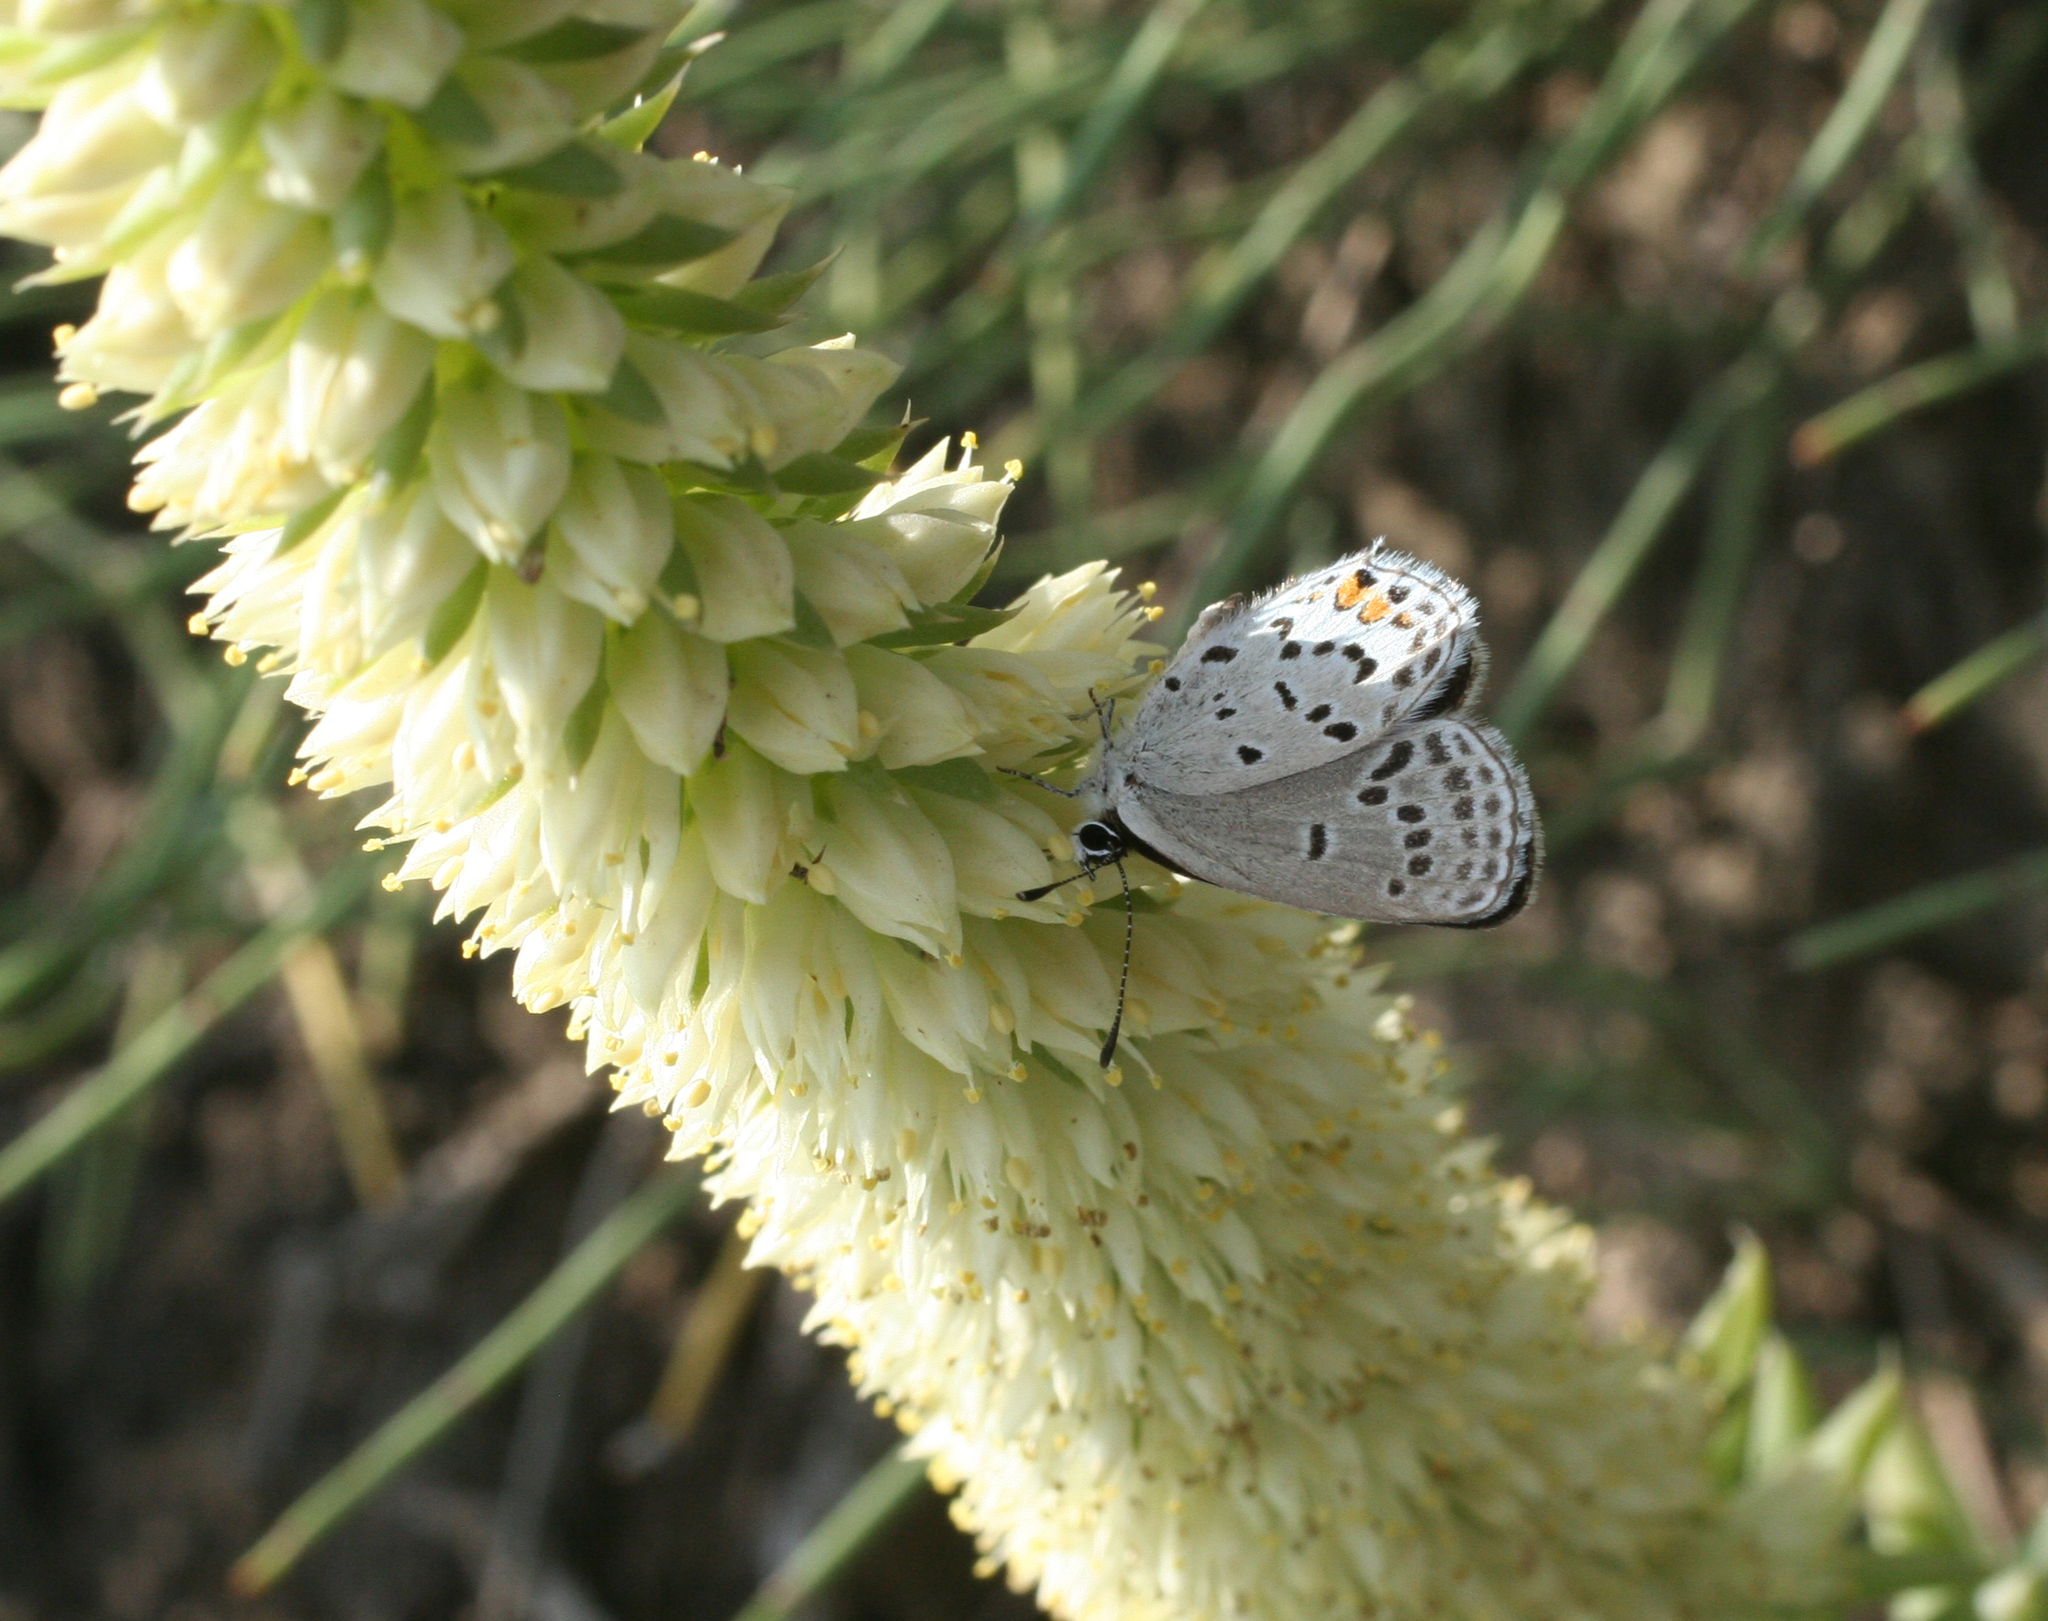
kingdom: Animalia
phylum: Arthropoda
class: Insecta
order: Lepidoptera
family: Lycaenidae
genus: Tongeia
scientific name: Tongeia fischeri
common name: Fischer's blue
